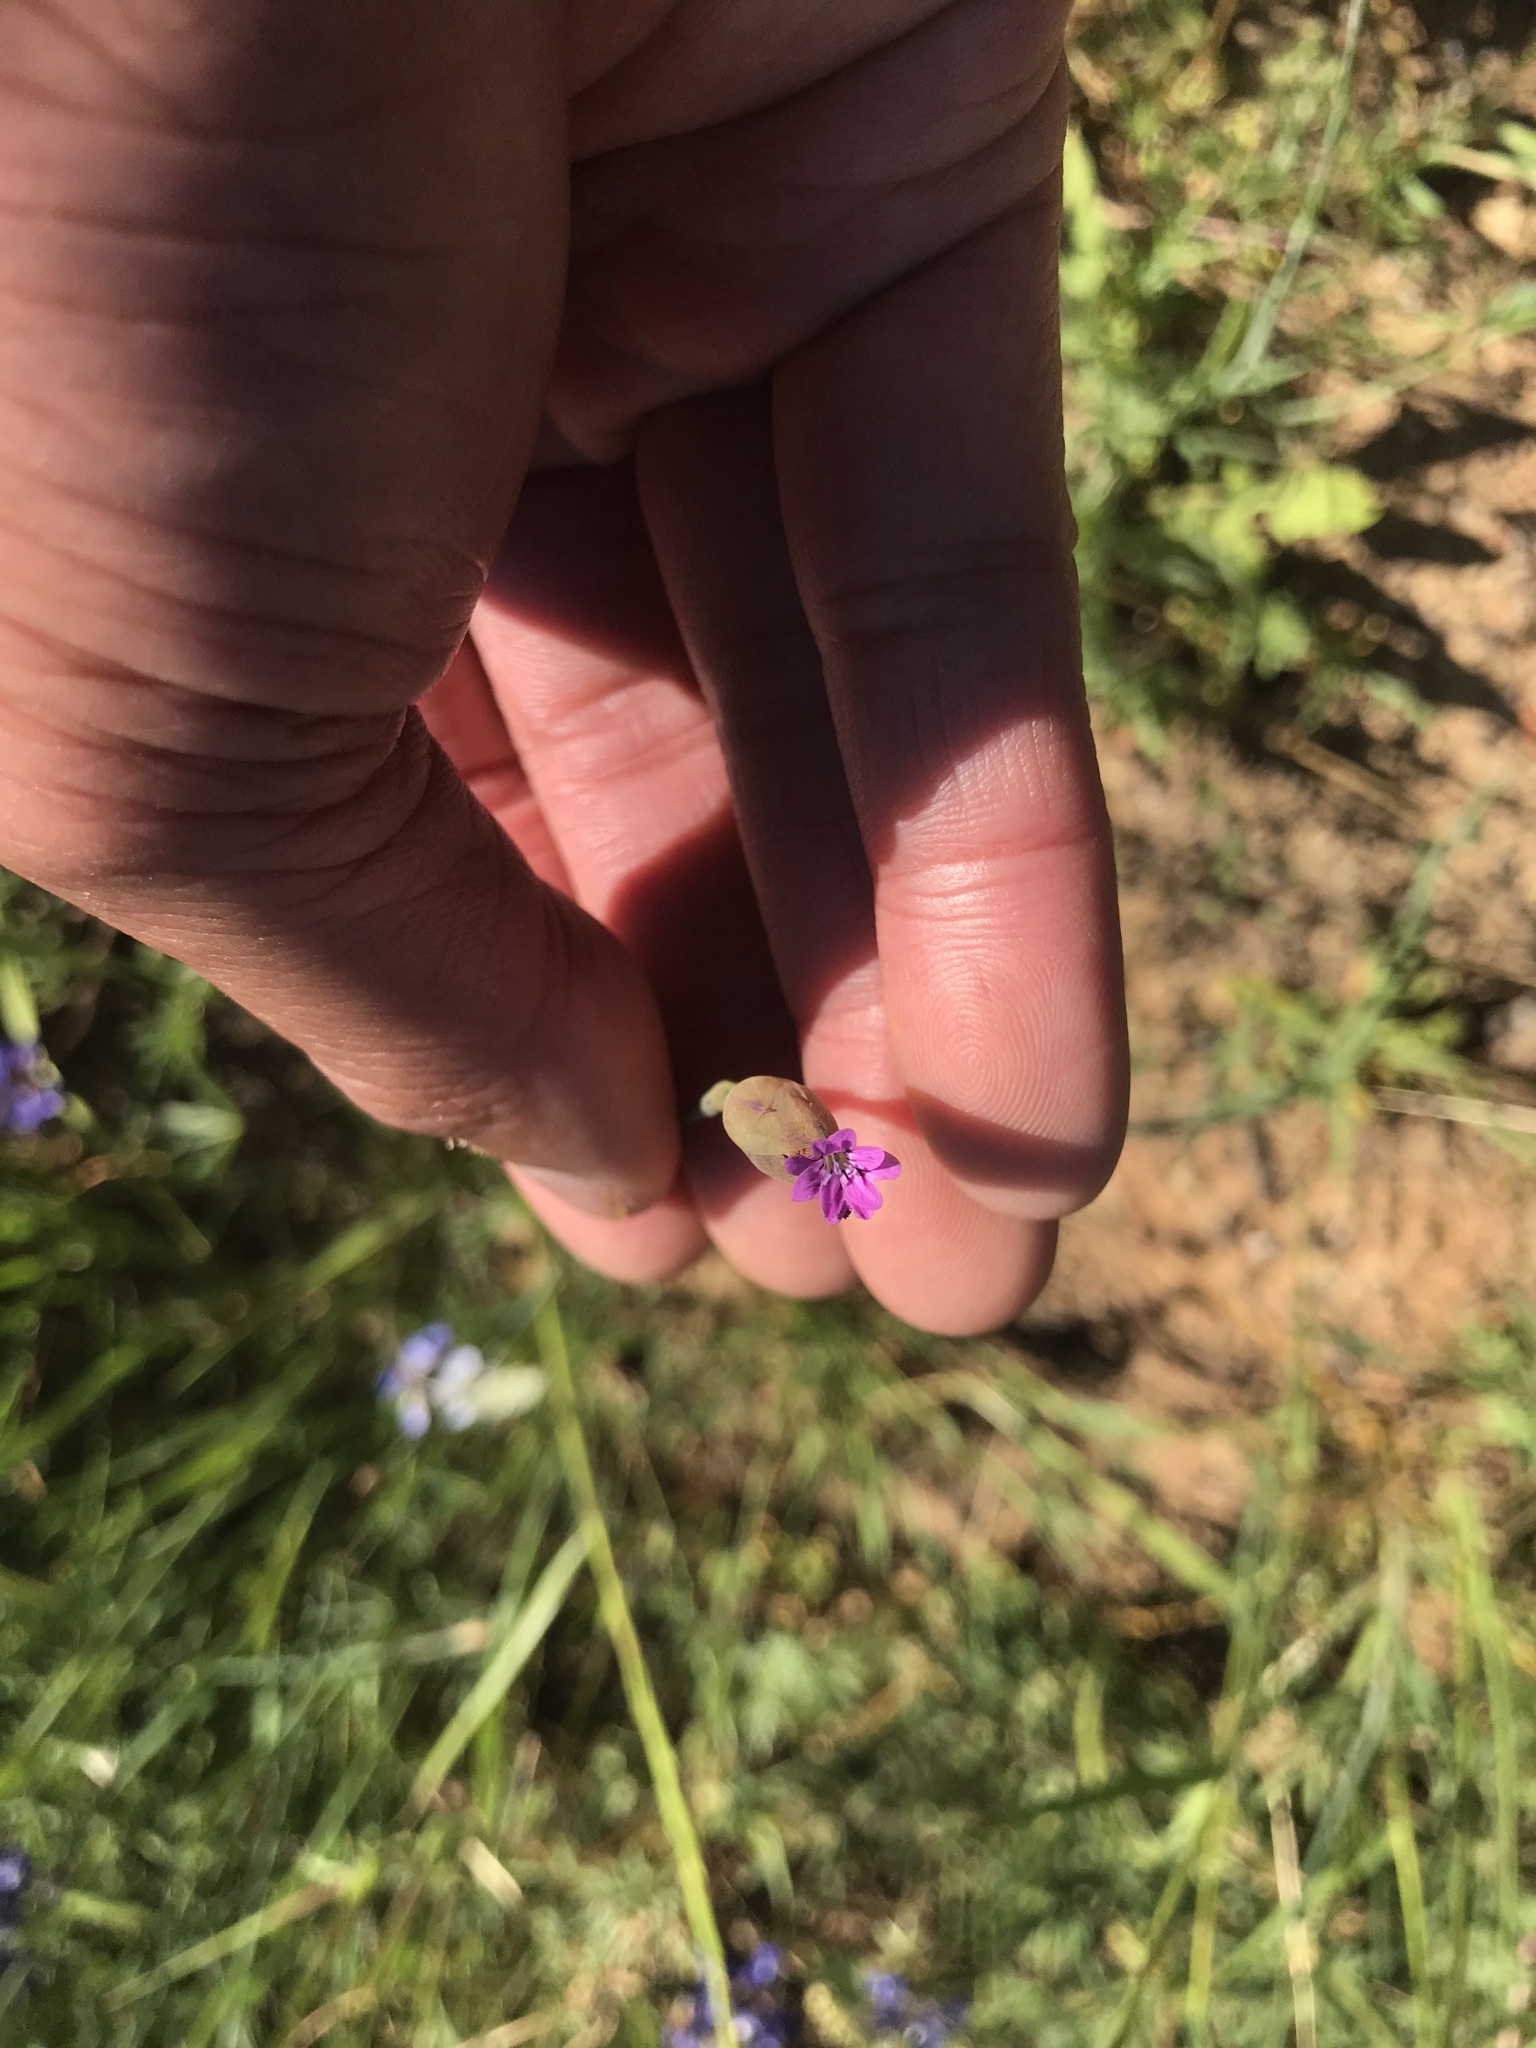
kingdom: Plantae
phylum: Tracheophyta
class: Magnoliopsida
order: Caryophyllales
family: Caryophyllaceae
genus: Petrorhagia
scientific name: Petrorhagia dubia
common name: Hairypink
